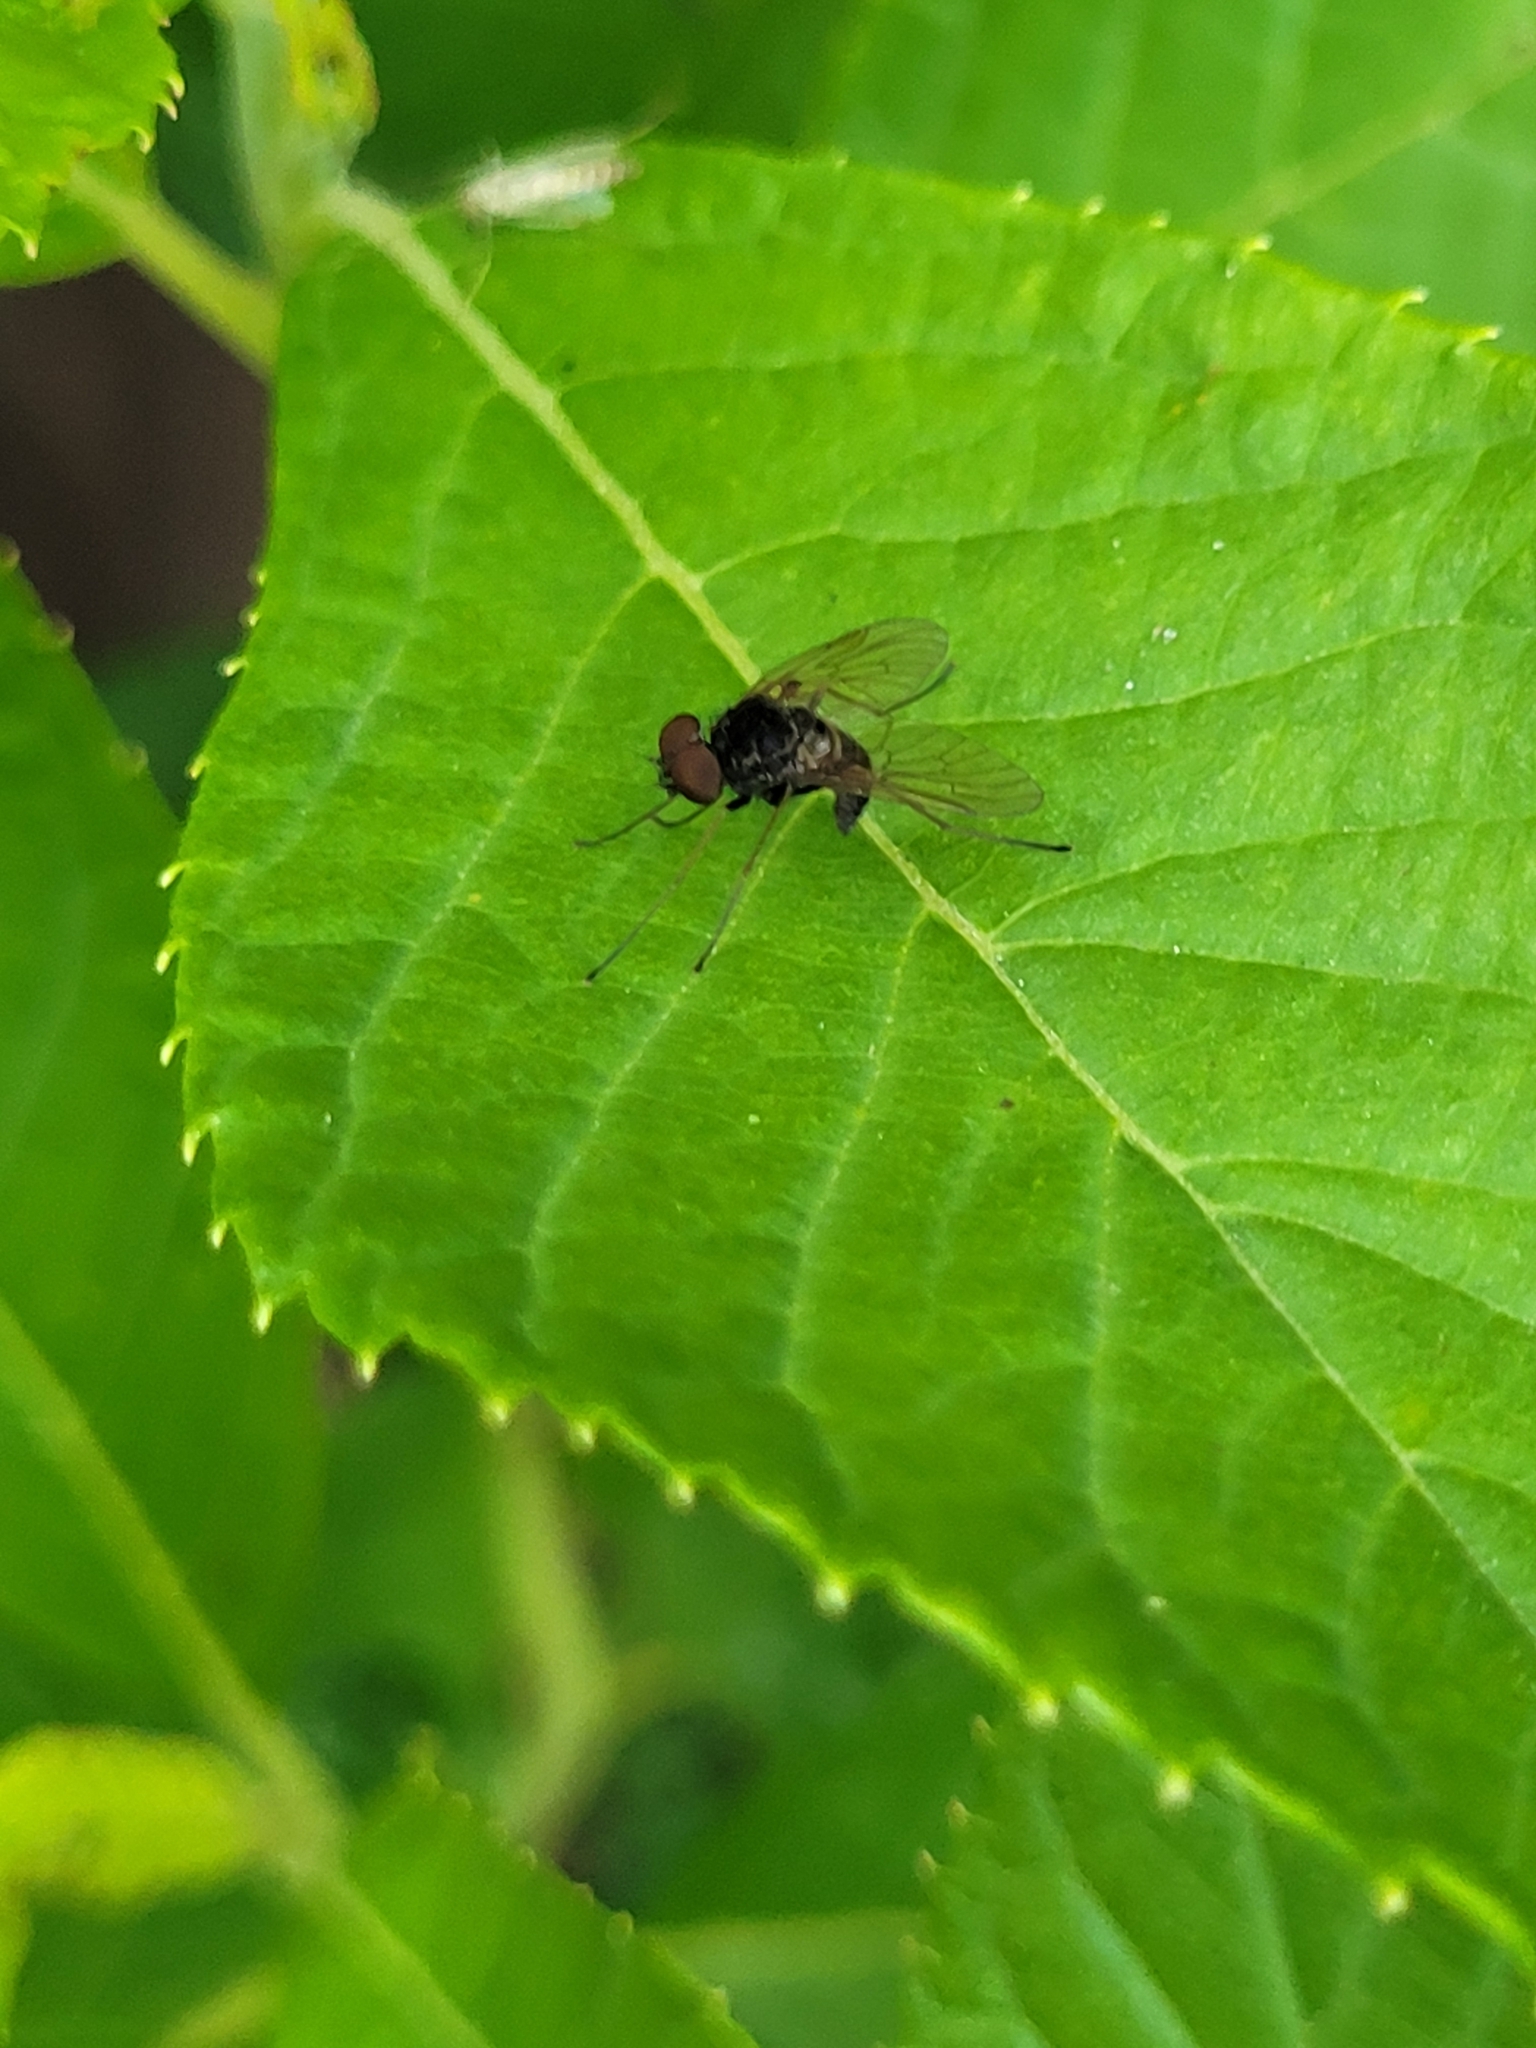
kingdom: Animalia
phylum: Arthropoda
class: Insecta
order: Diptera
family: Rhagionidae
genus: Chrysopilus
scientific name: Chrysopilus proximus
